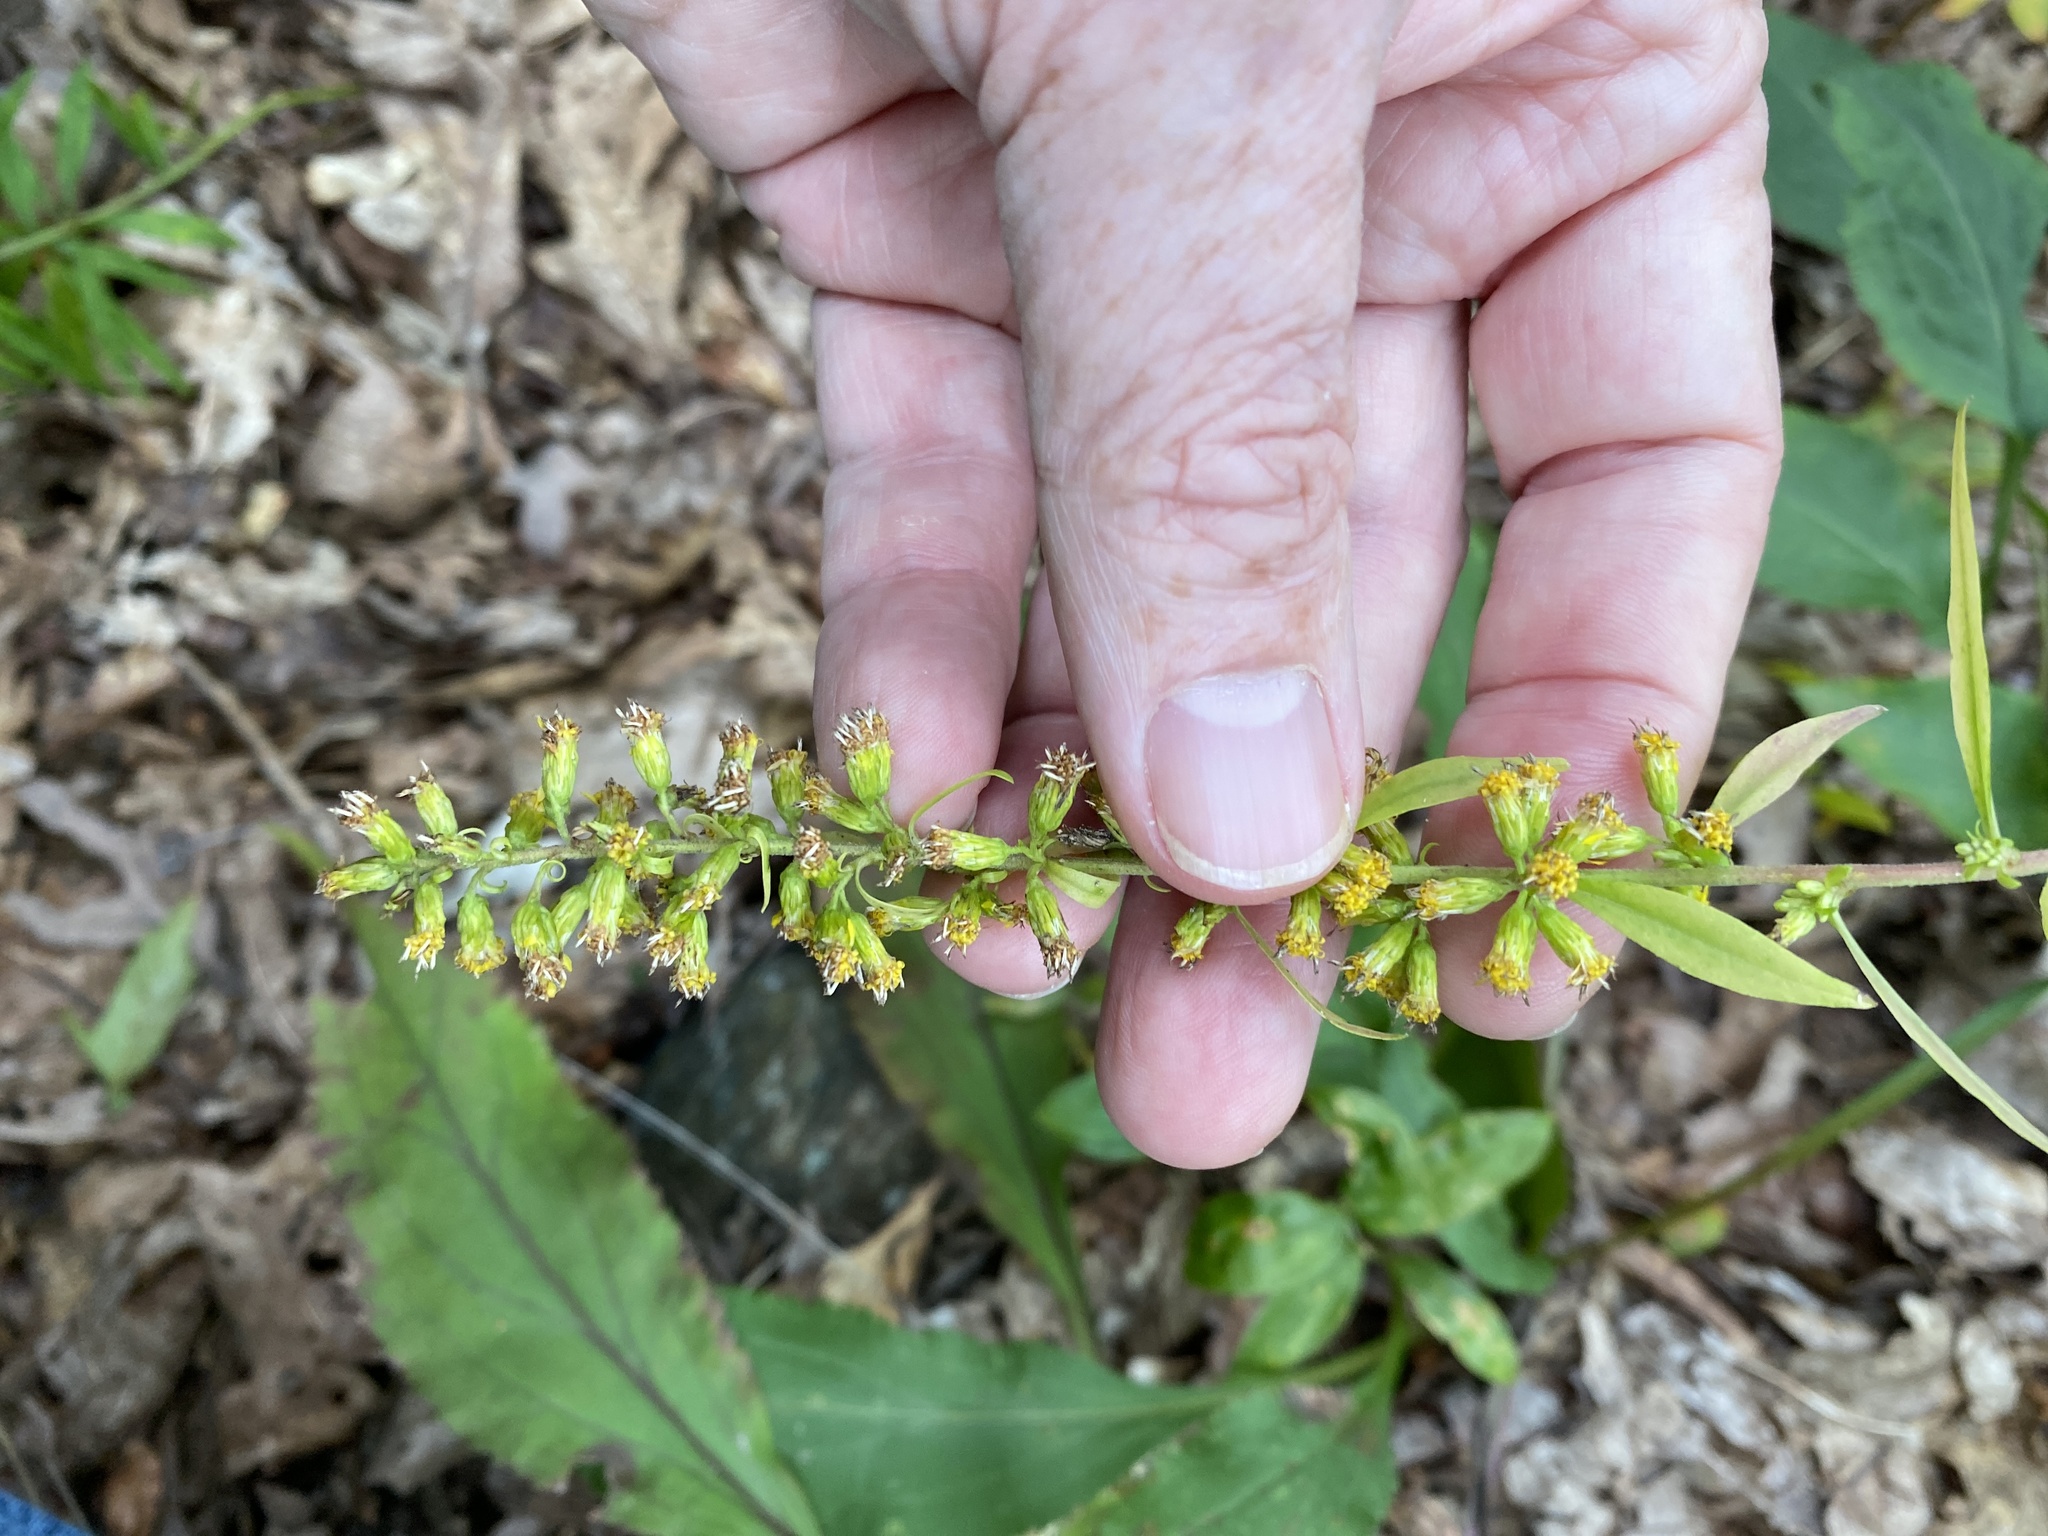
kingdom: Plantae
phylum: Tracheophyta
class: Magnoliopsida
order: Asterales
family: Asteraceae
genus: Solidago
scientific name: Solidago erecta
